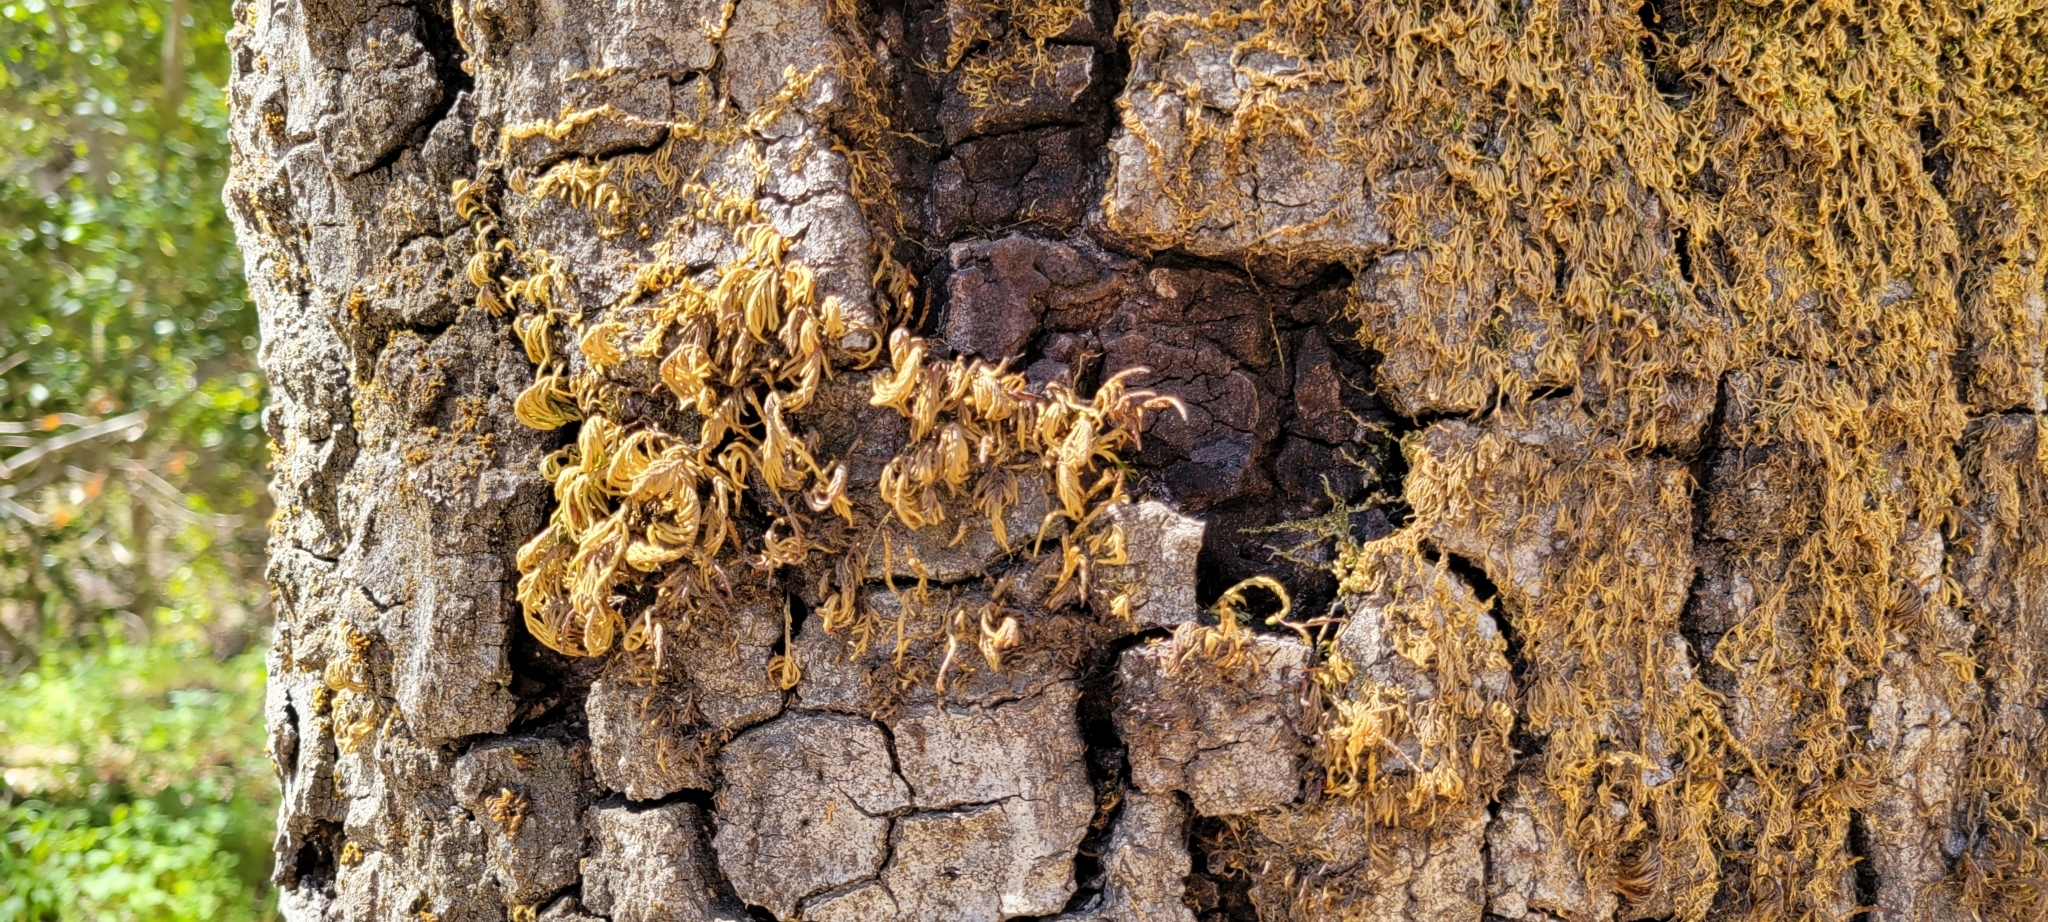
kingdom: Plantae
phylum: Bryophyta
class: Bryopsida
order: Hypnales
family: Cryphaeaceae
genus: Dendroalsia
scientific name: Dendroalsia abietina
